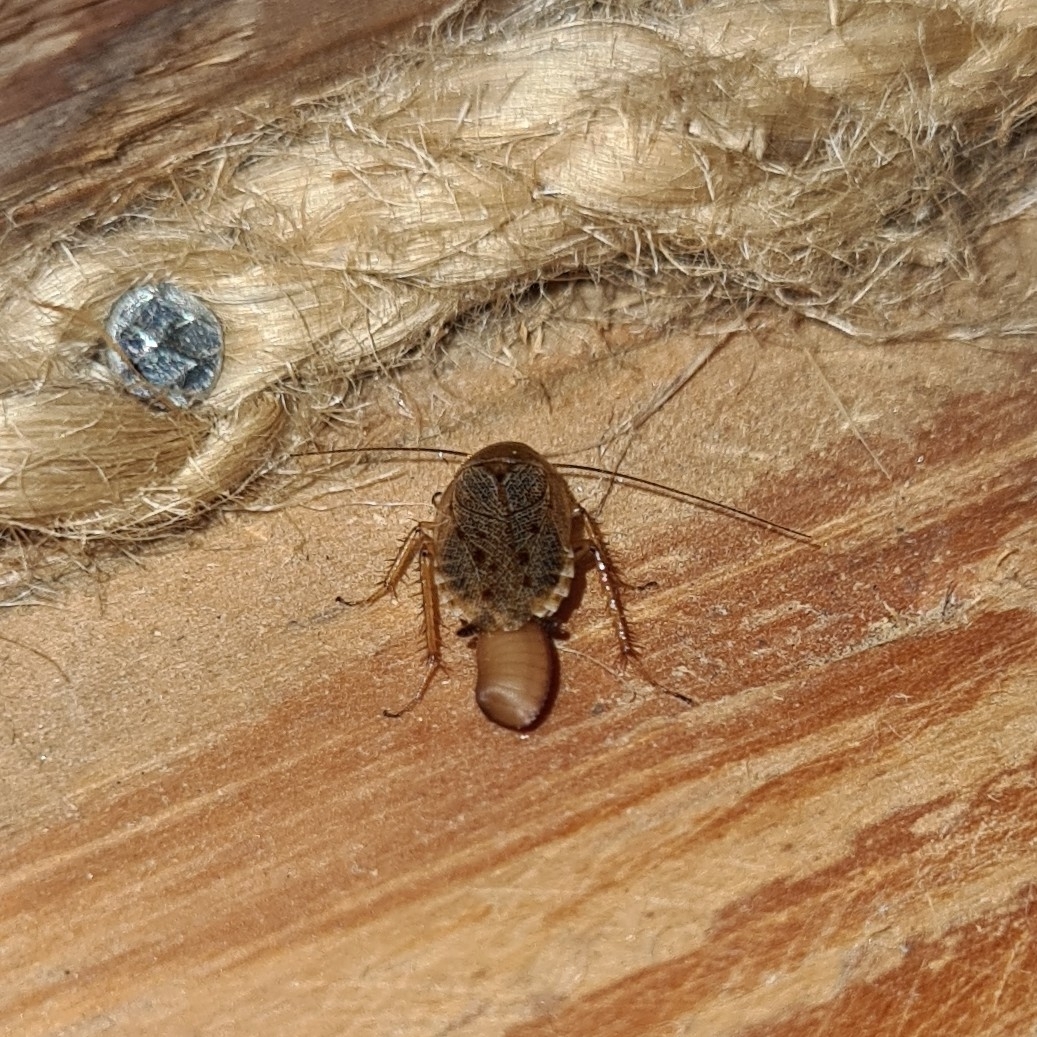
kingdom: Animalia
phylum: Arthropoda
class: Insecta
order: Blattodea
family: Ectobiidae
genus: Ectobius
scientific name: Ectobius lapponicus
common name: Dusky cockroach
